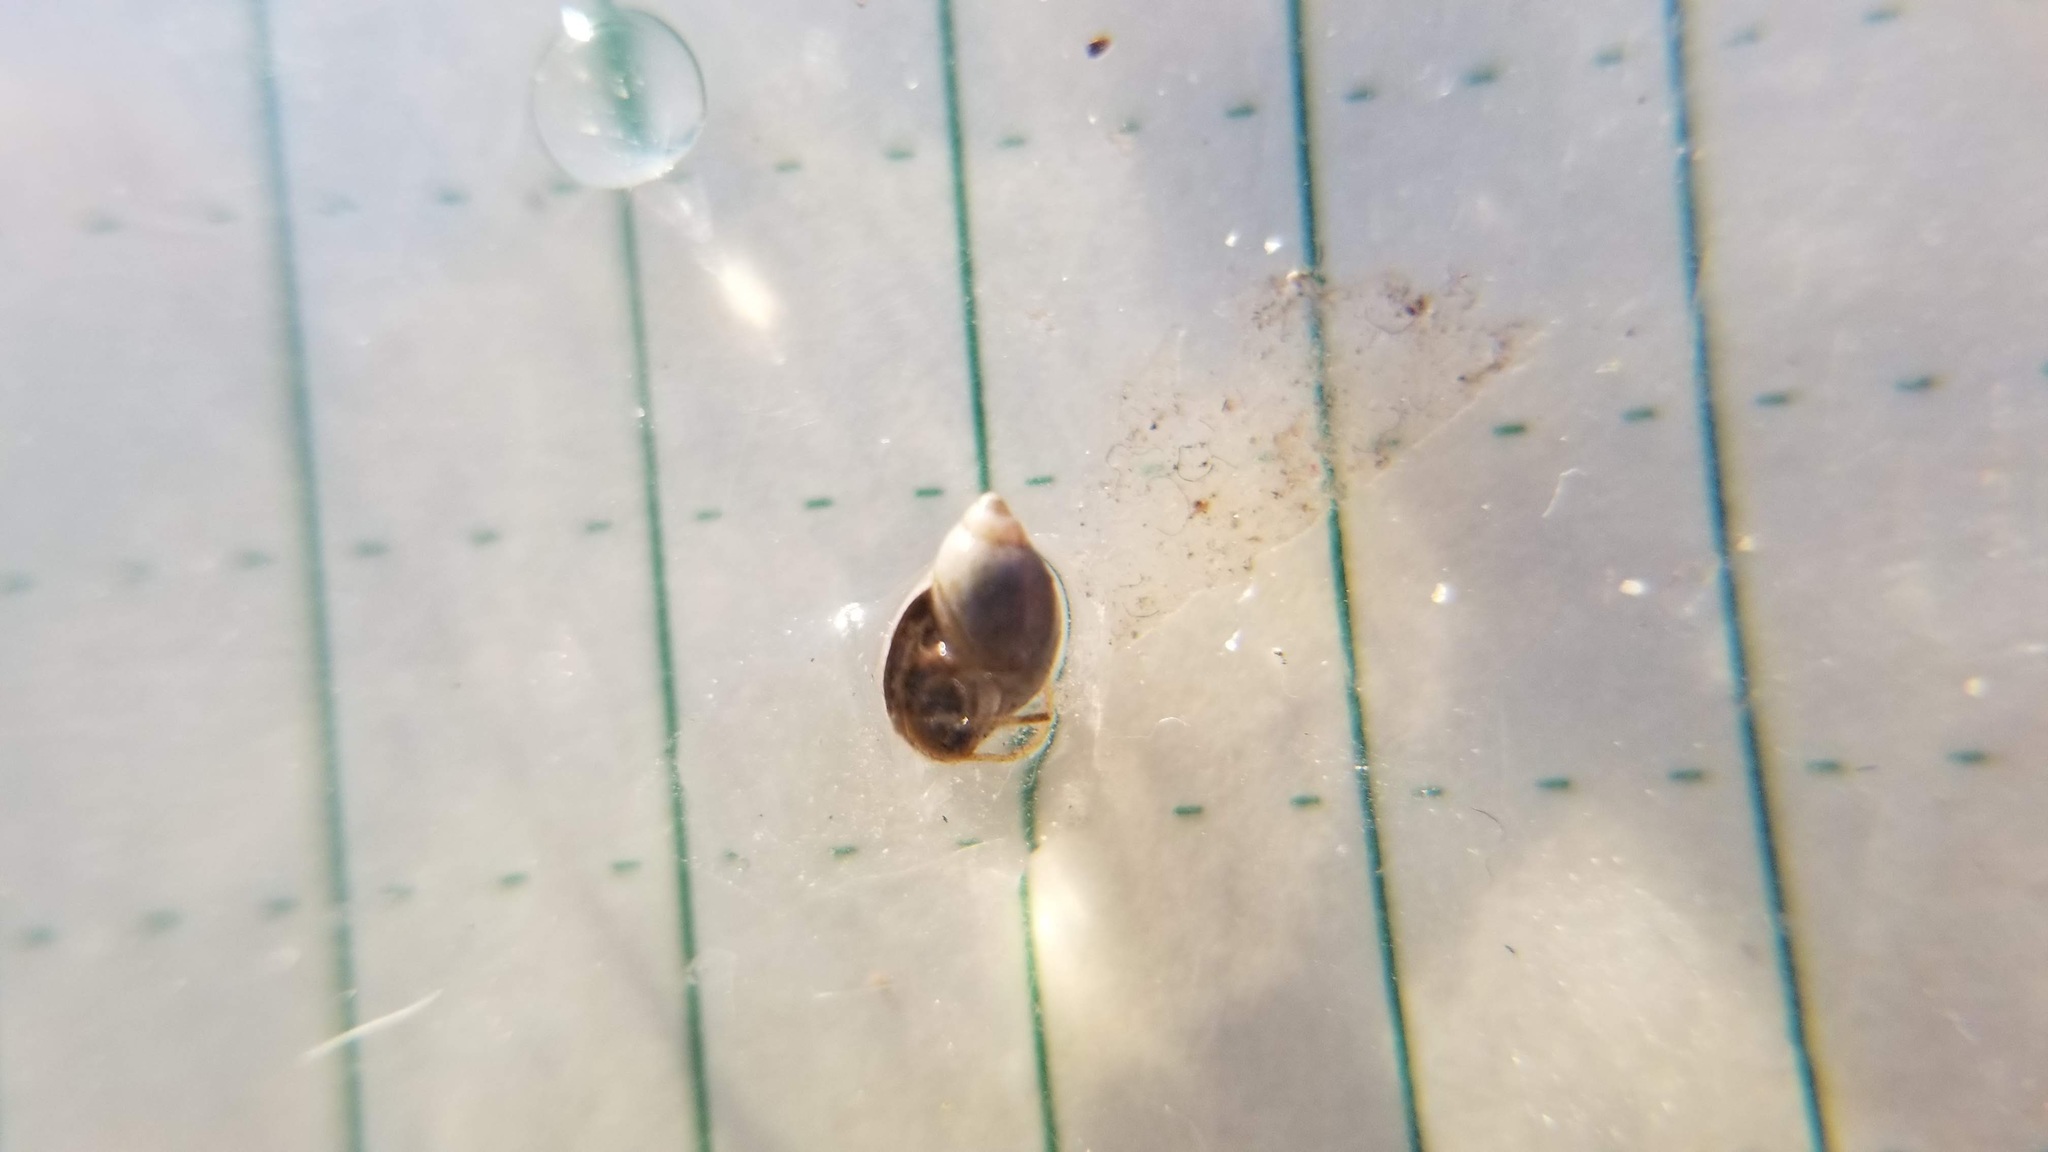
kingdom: Animalia
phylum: Mollusca
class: Gastropoda
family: Physidae
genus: Physella
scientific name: Physella
